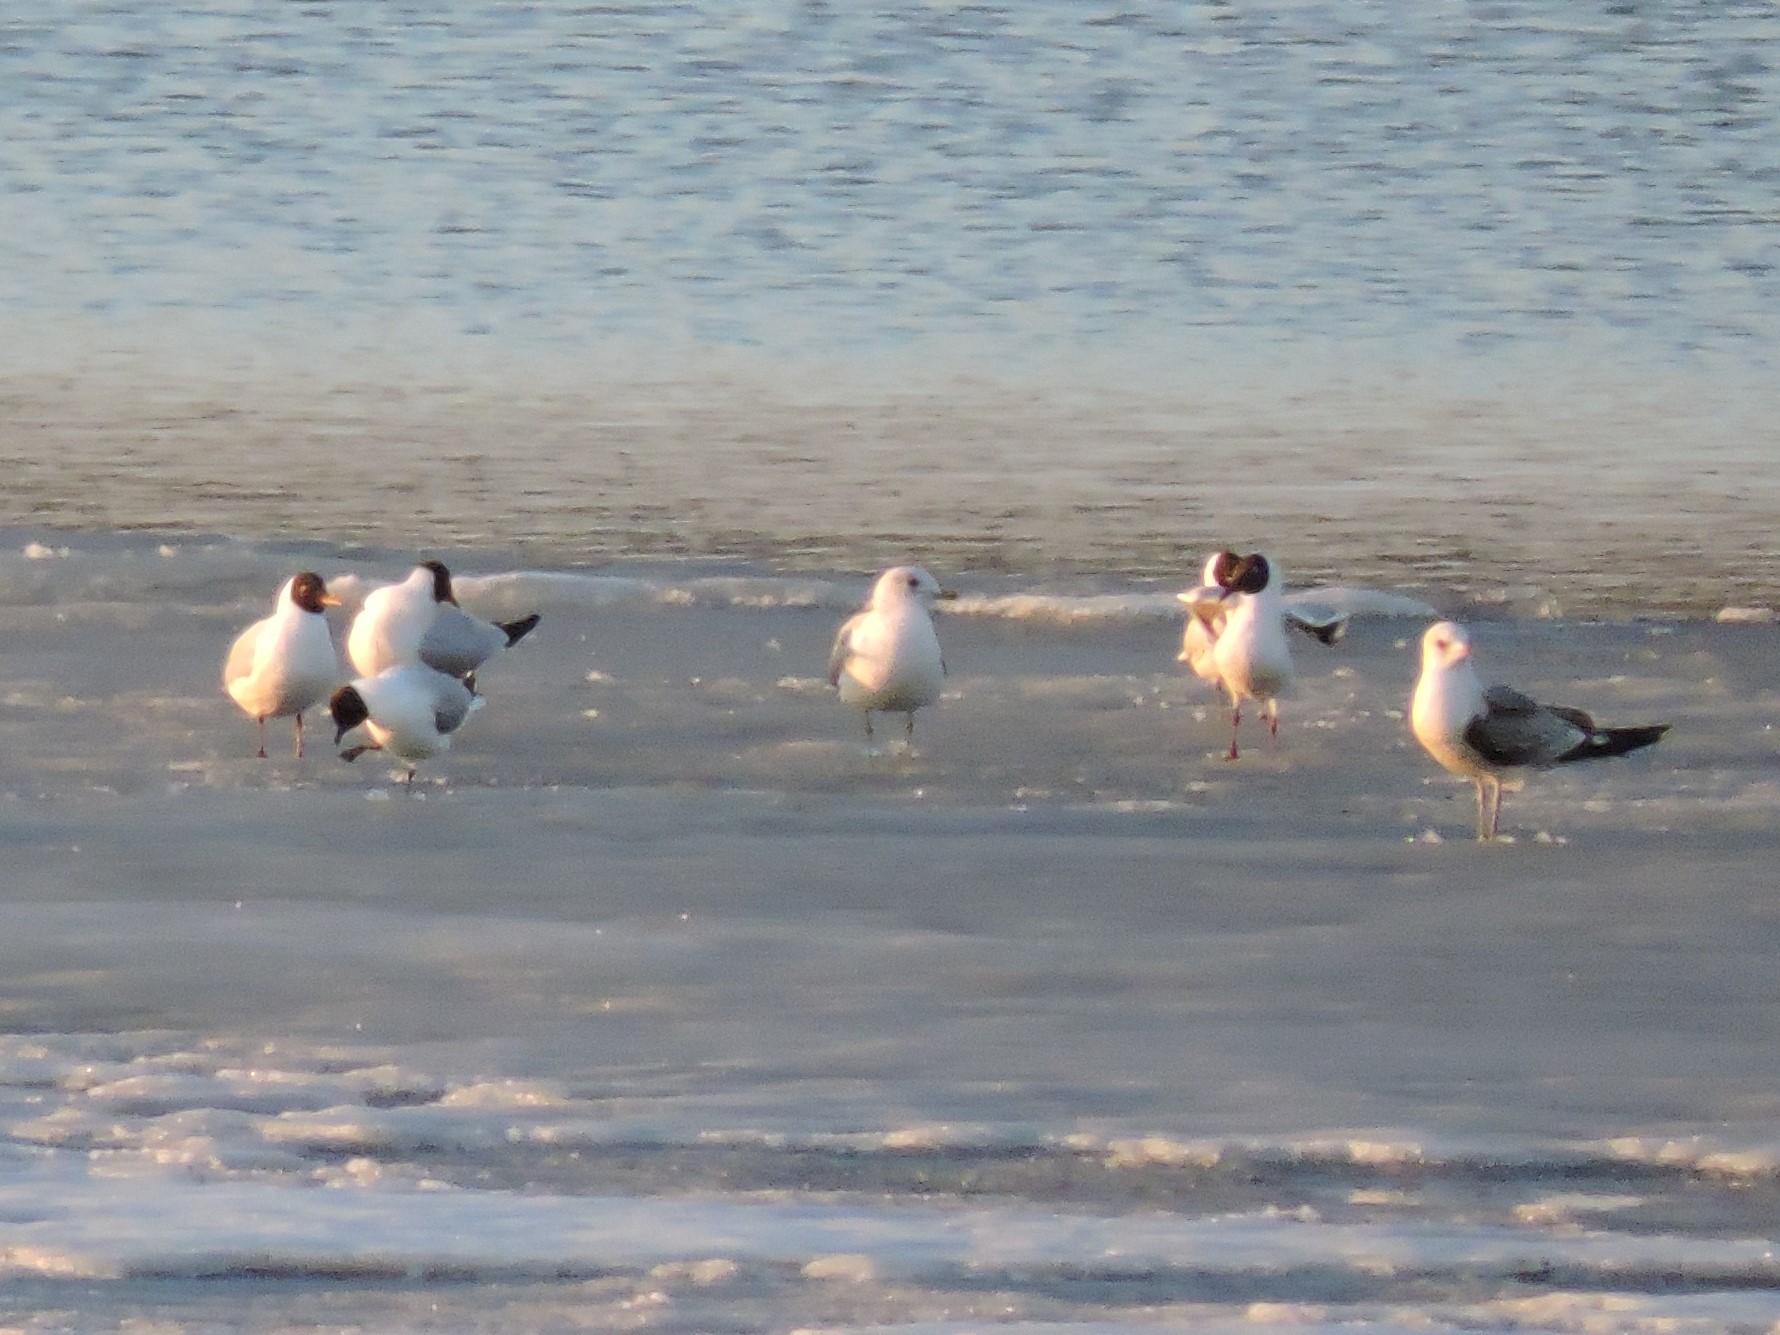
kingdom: Animalia
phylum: Chordata
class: Aves
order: Charadriiformes
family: Laridae
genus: Chroicocephalus
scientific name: Chroicocephalus ridibundus
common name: Black-headed gull
